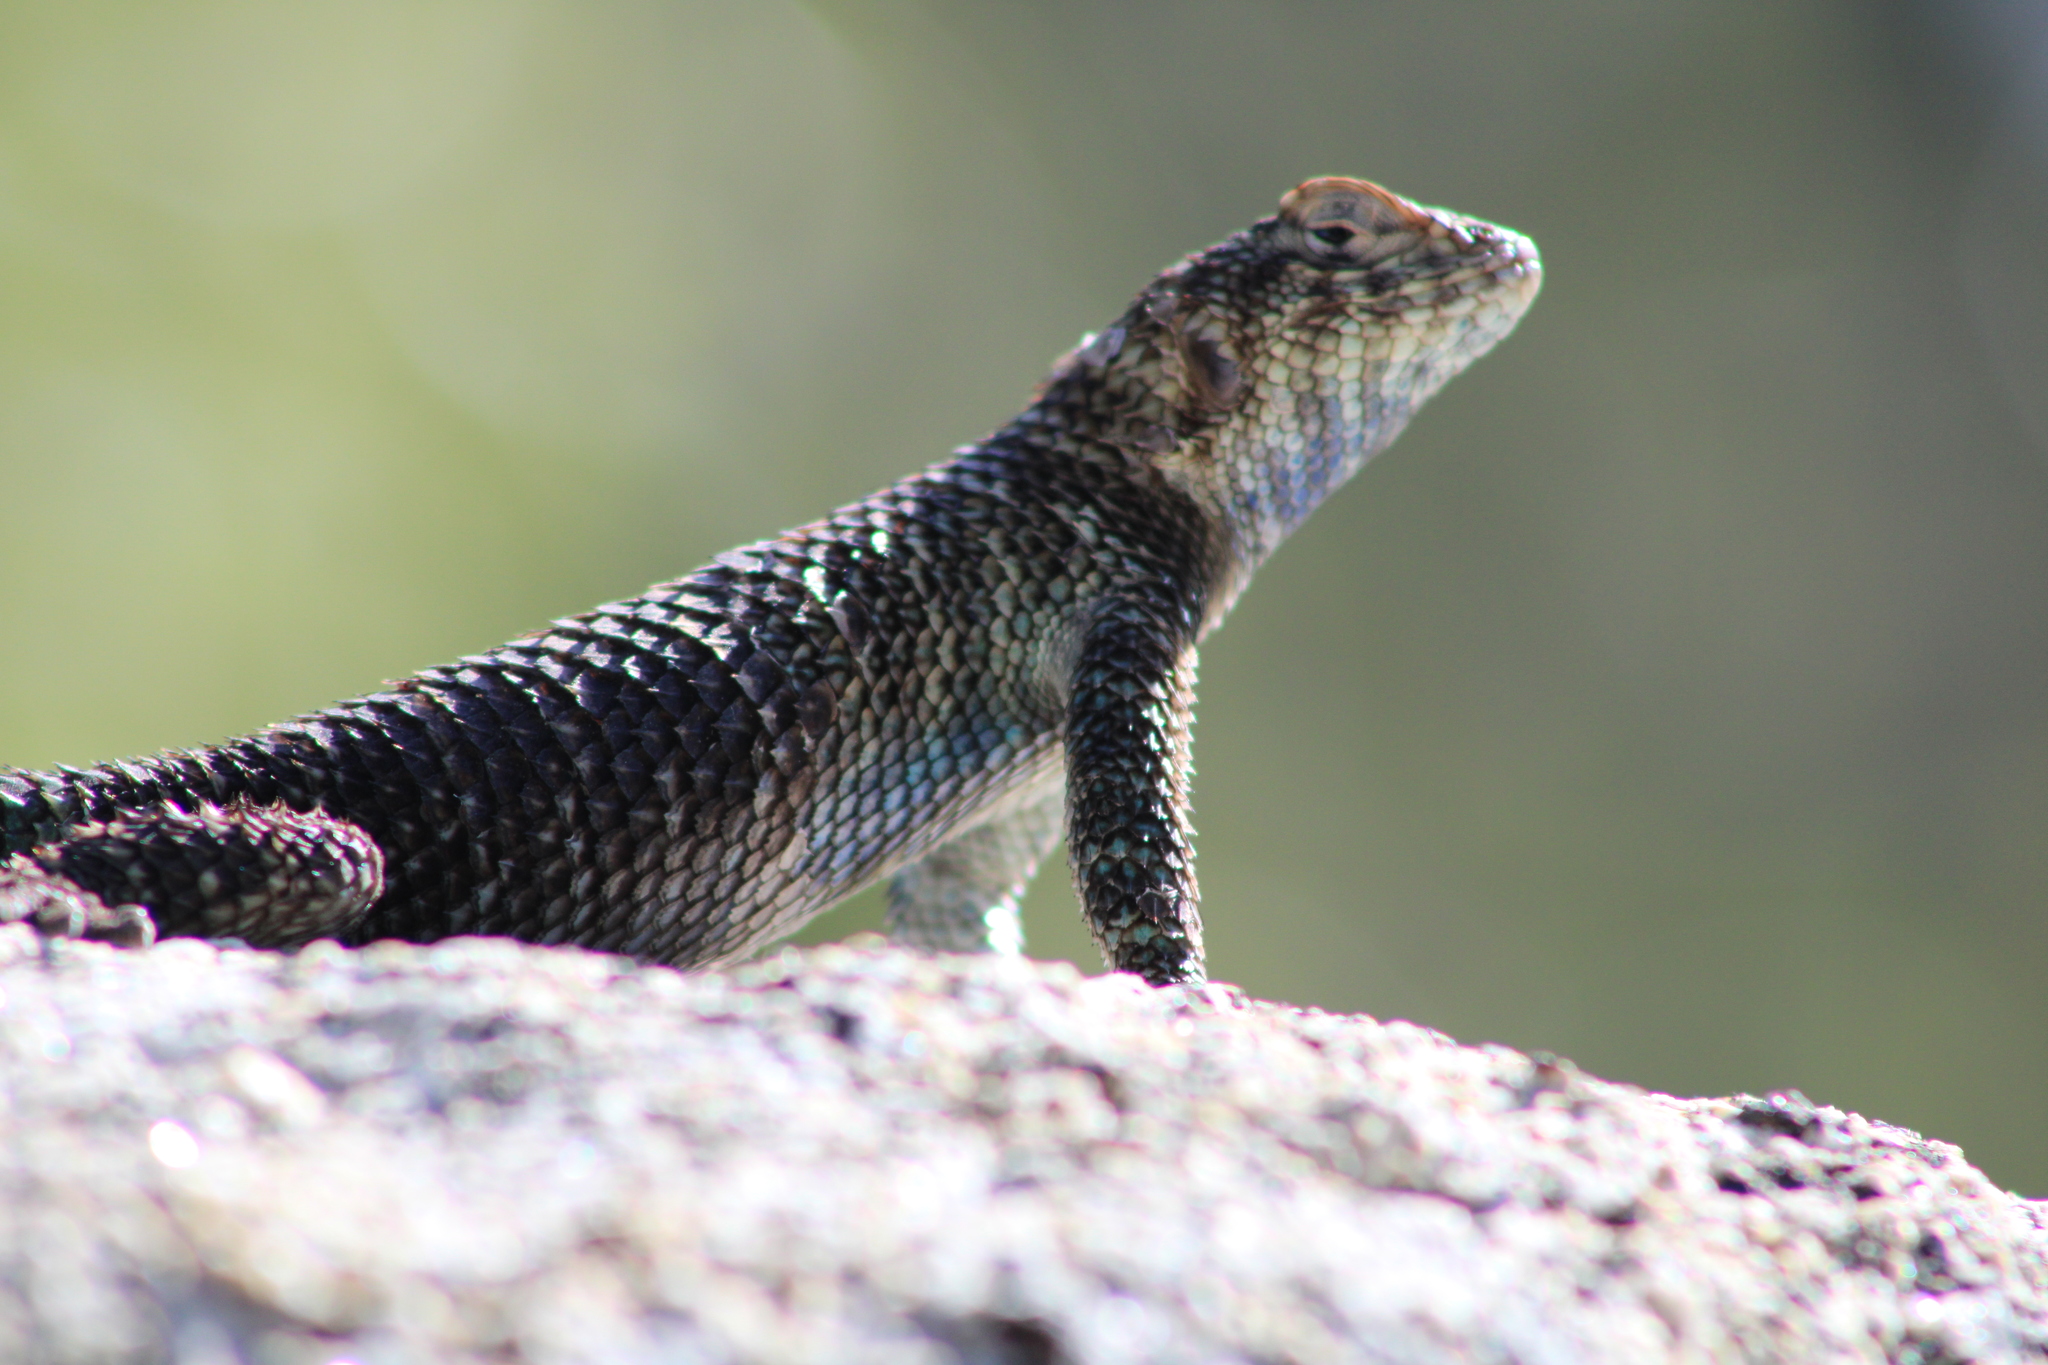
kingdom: Animalia
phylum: Chordata
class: Squamata
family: Phrynosomatidae
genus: Sceloporus
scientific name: Sceloporus orcutti
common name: Granite spiny lizard
